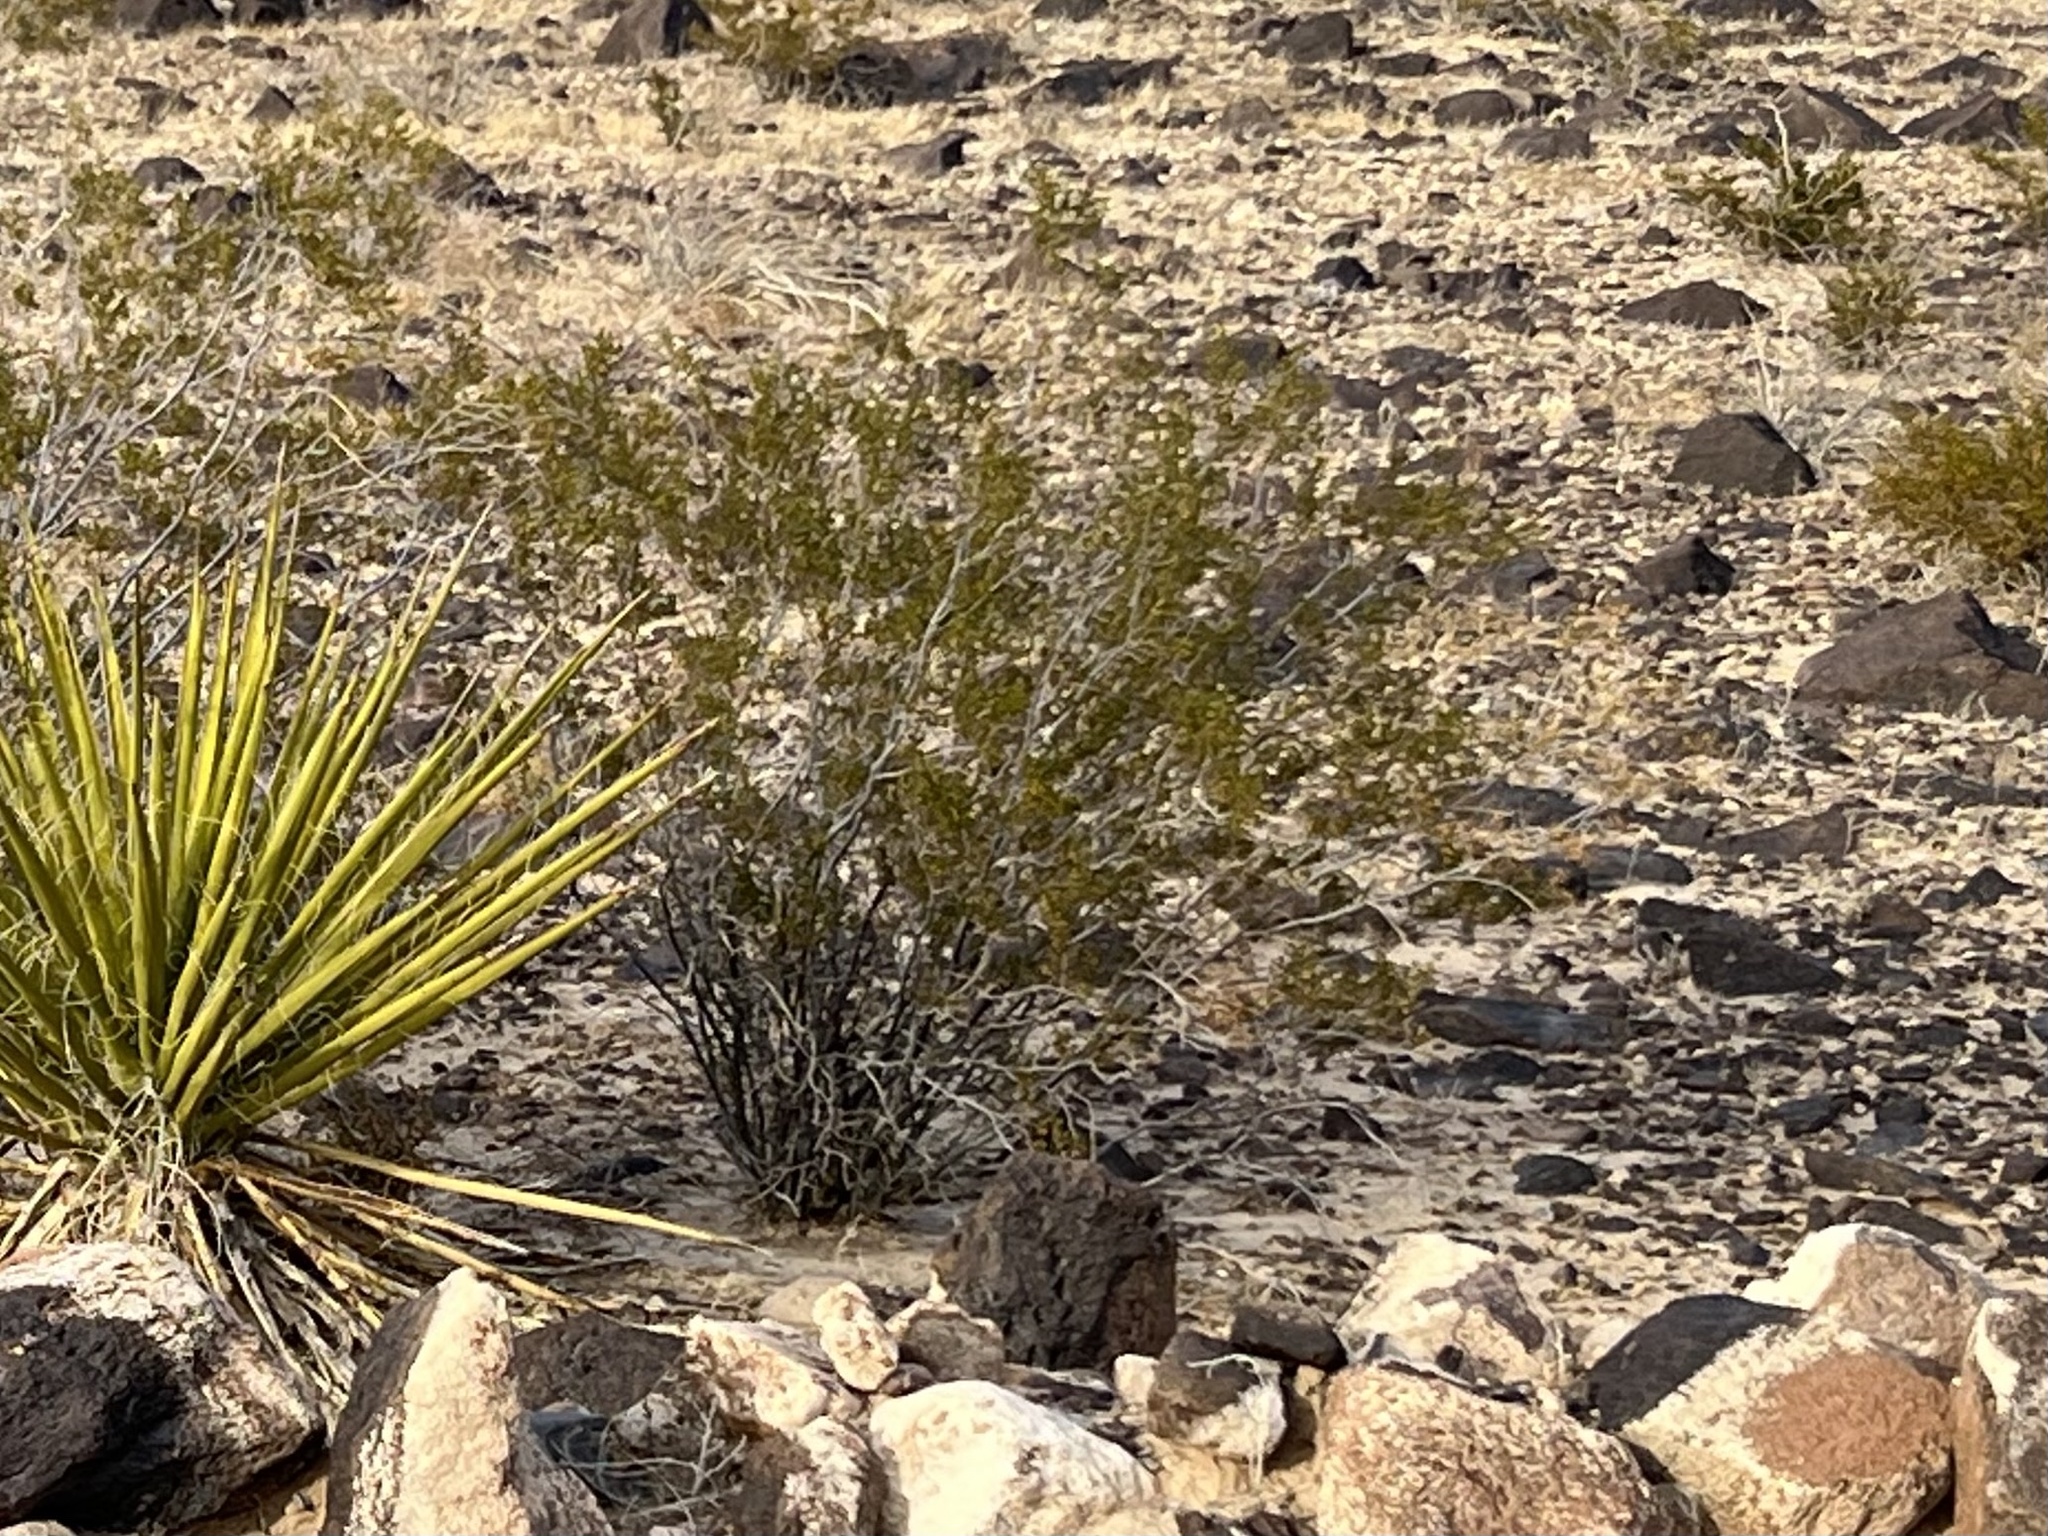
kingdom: Plantae
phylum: Tracheophyta
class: Magnoliopsida
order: Zygophyllales
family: Zygophyllaceae
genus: Larrea
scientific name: Larrea tridentata
